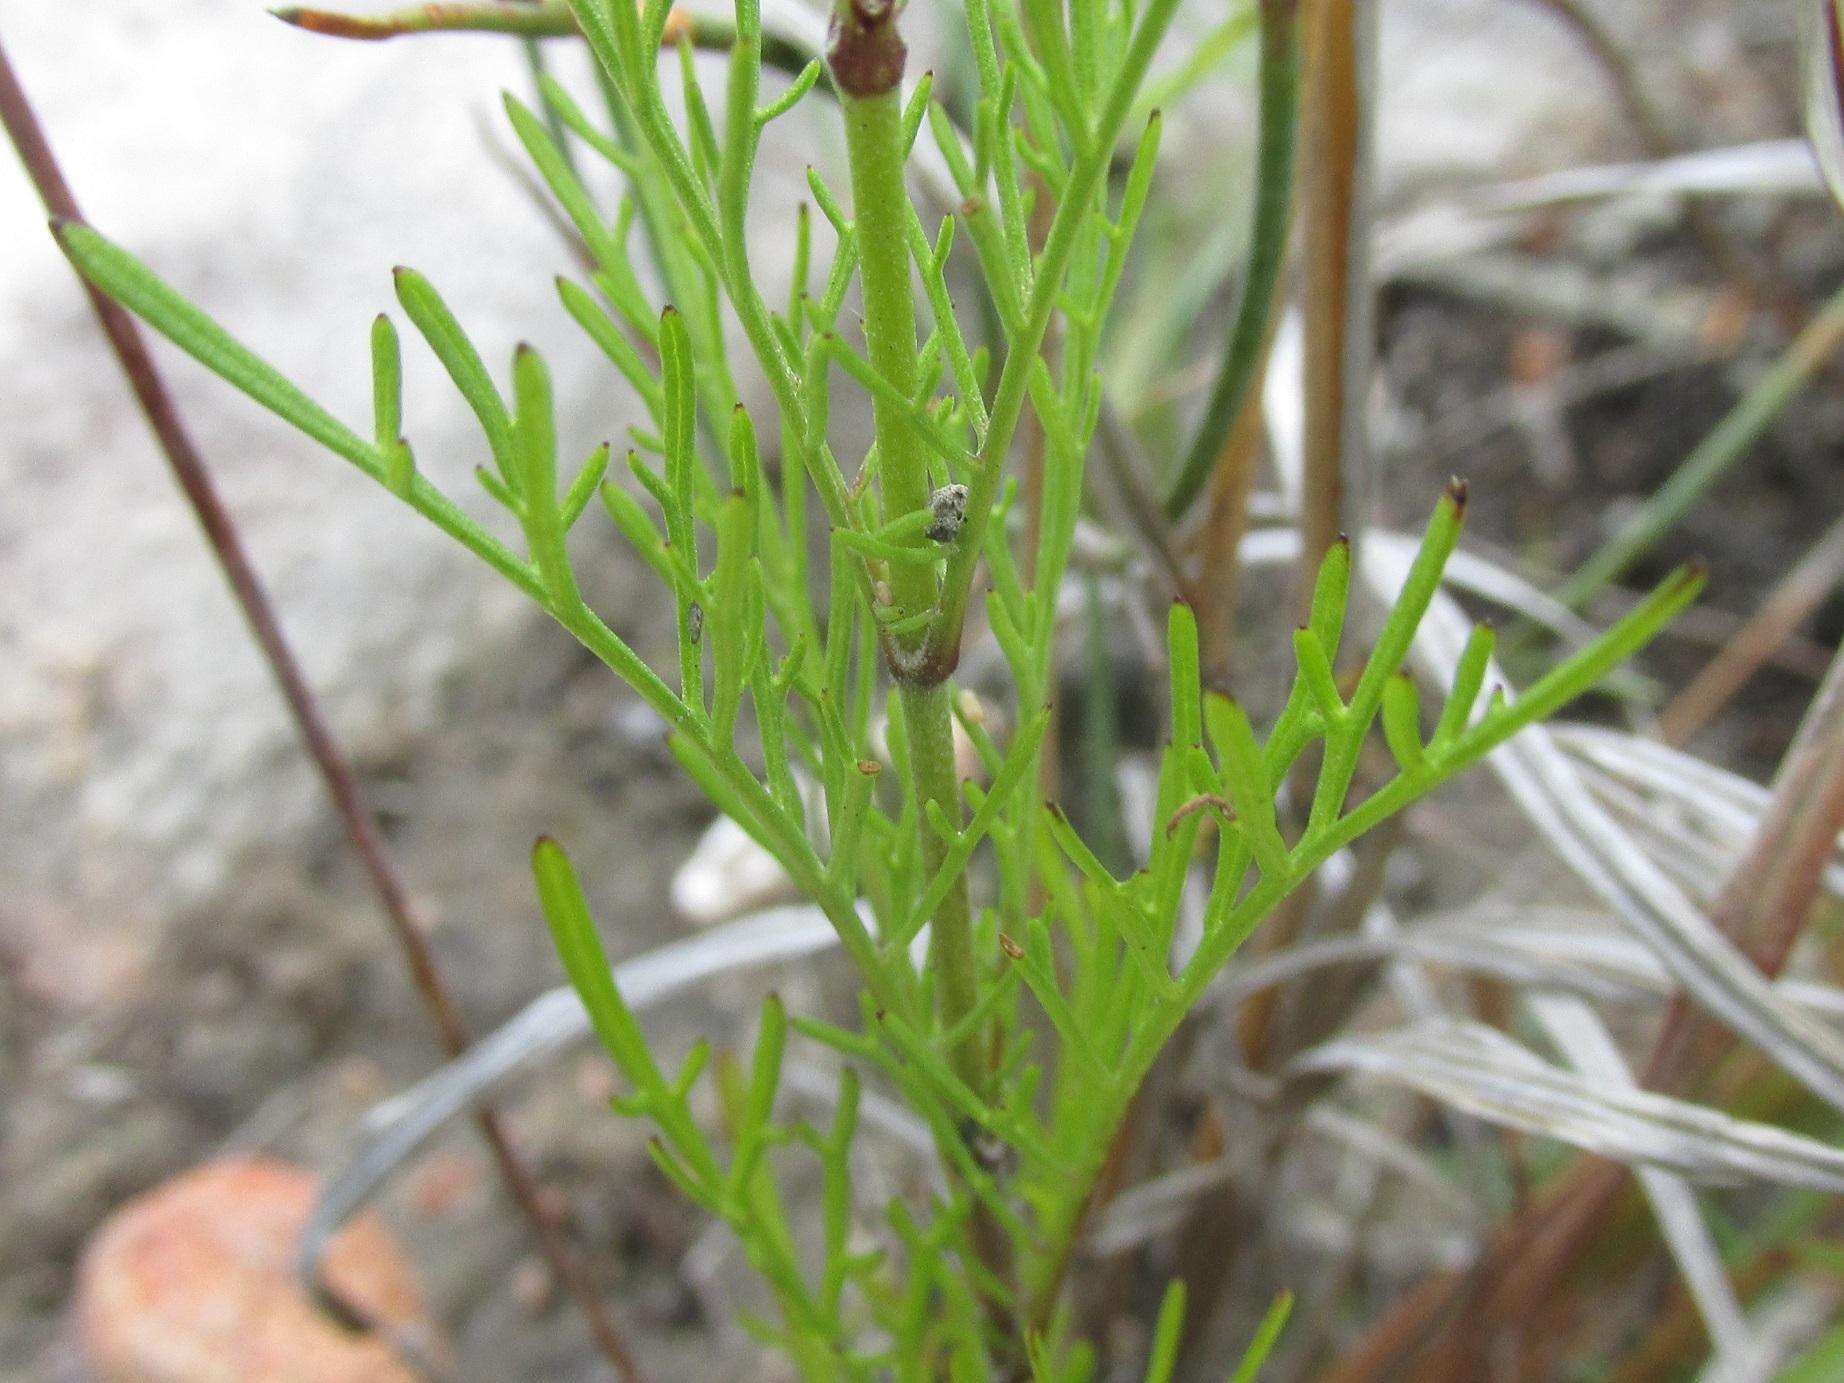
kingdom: Plantae
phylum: Tracheophyta
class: Magnoliopsida
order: Dipsacales
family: Caprifoliaceae
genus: Scabiosa
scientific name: Scabiosa albanensis
